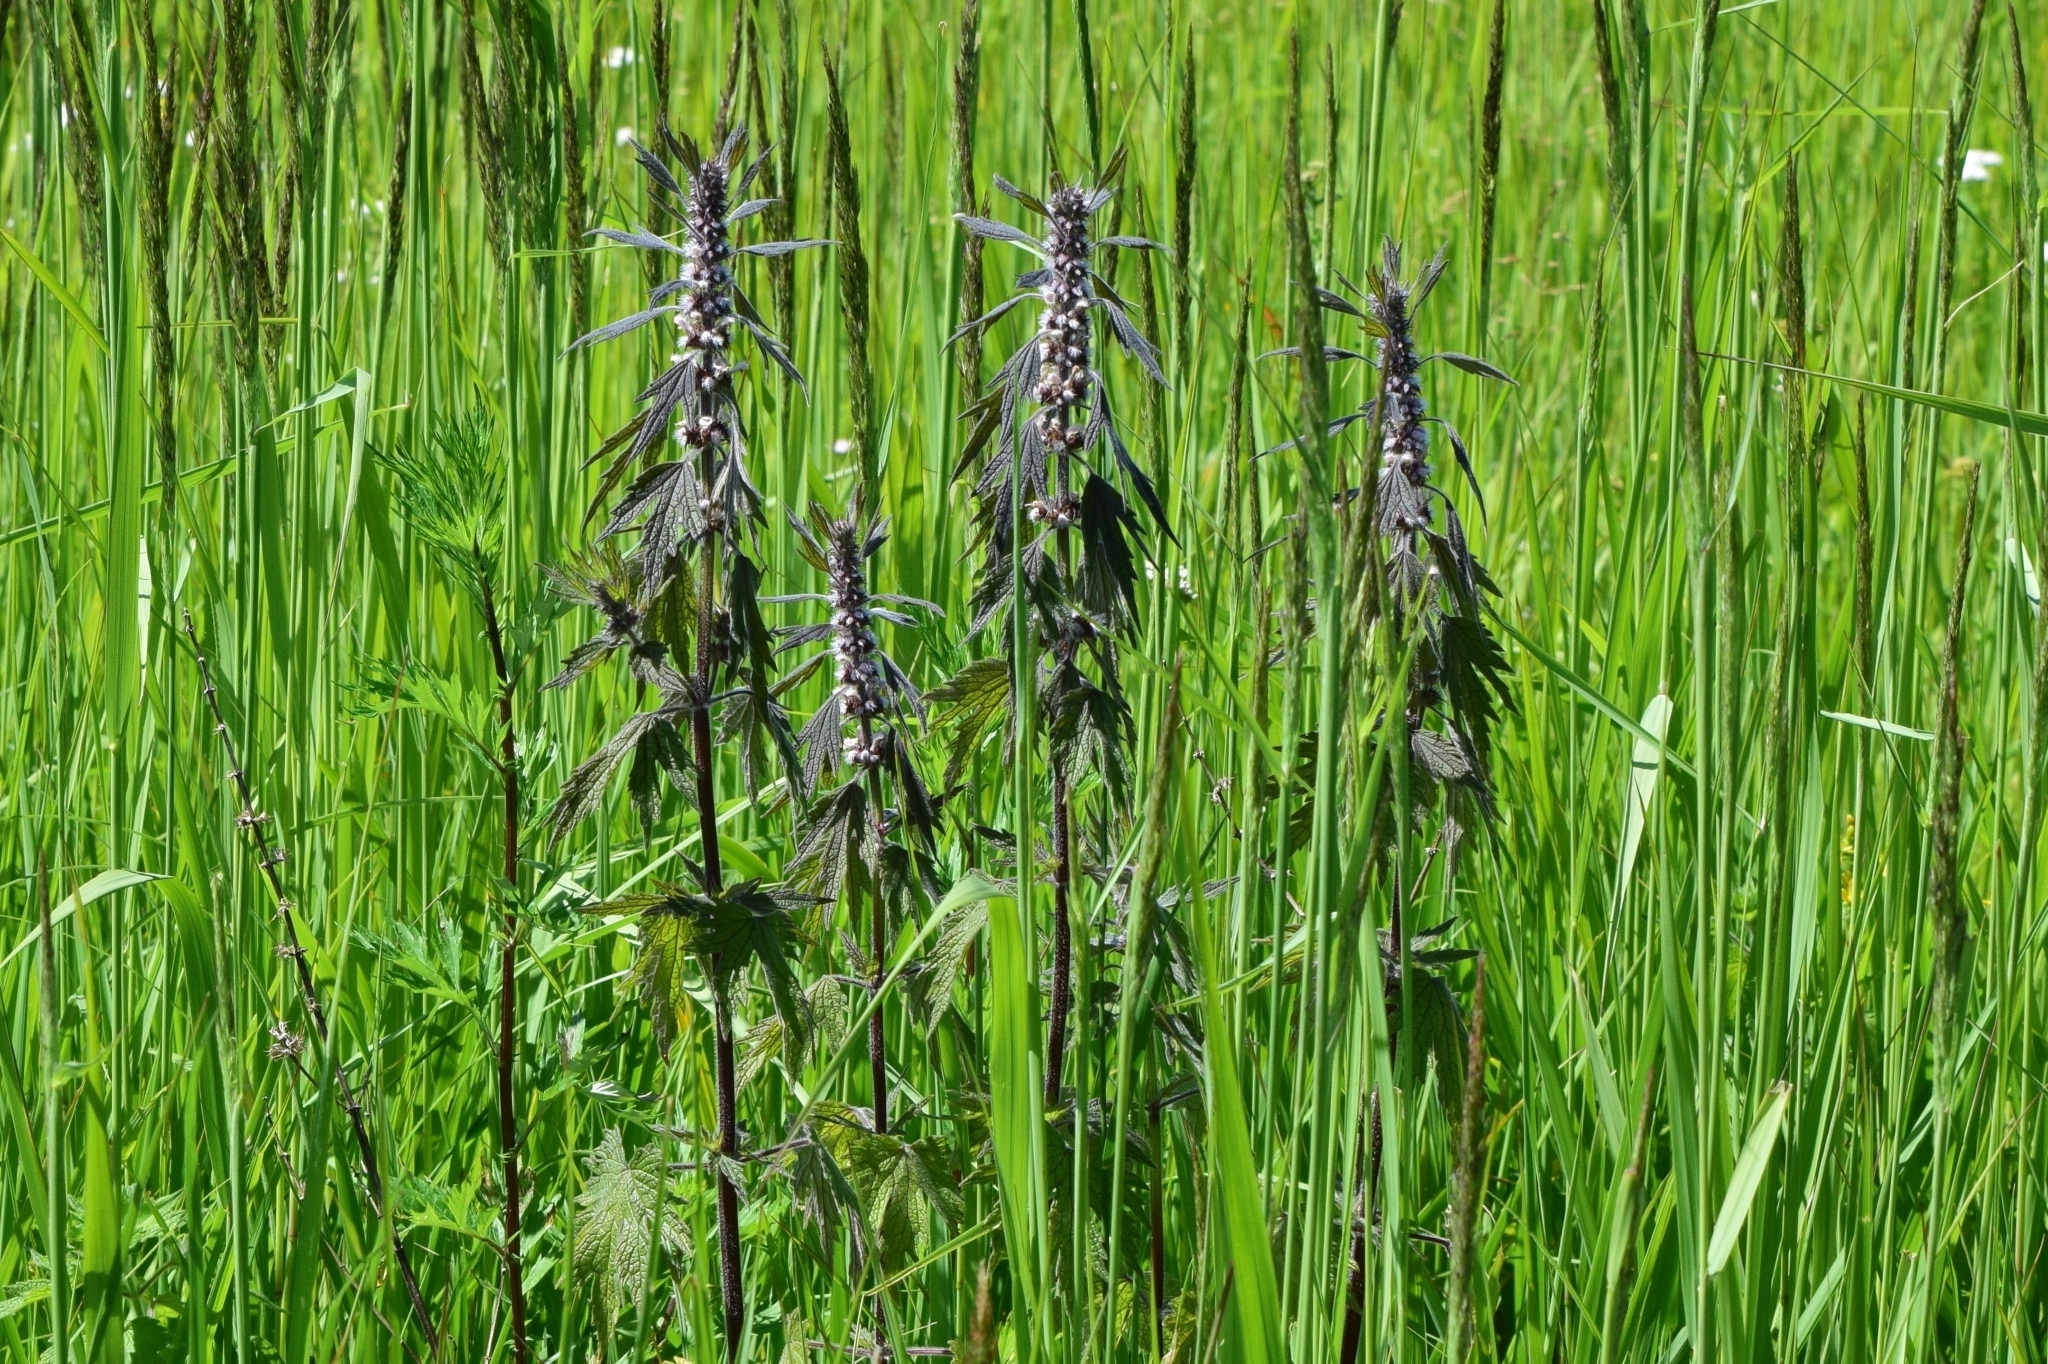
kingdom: Plantae
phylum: Tracheophyta
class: Magnoliopsida
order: Lamiales
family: Lamiaceae
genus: Leonurus
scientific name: Leonurus quinquelobatus
